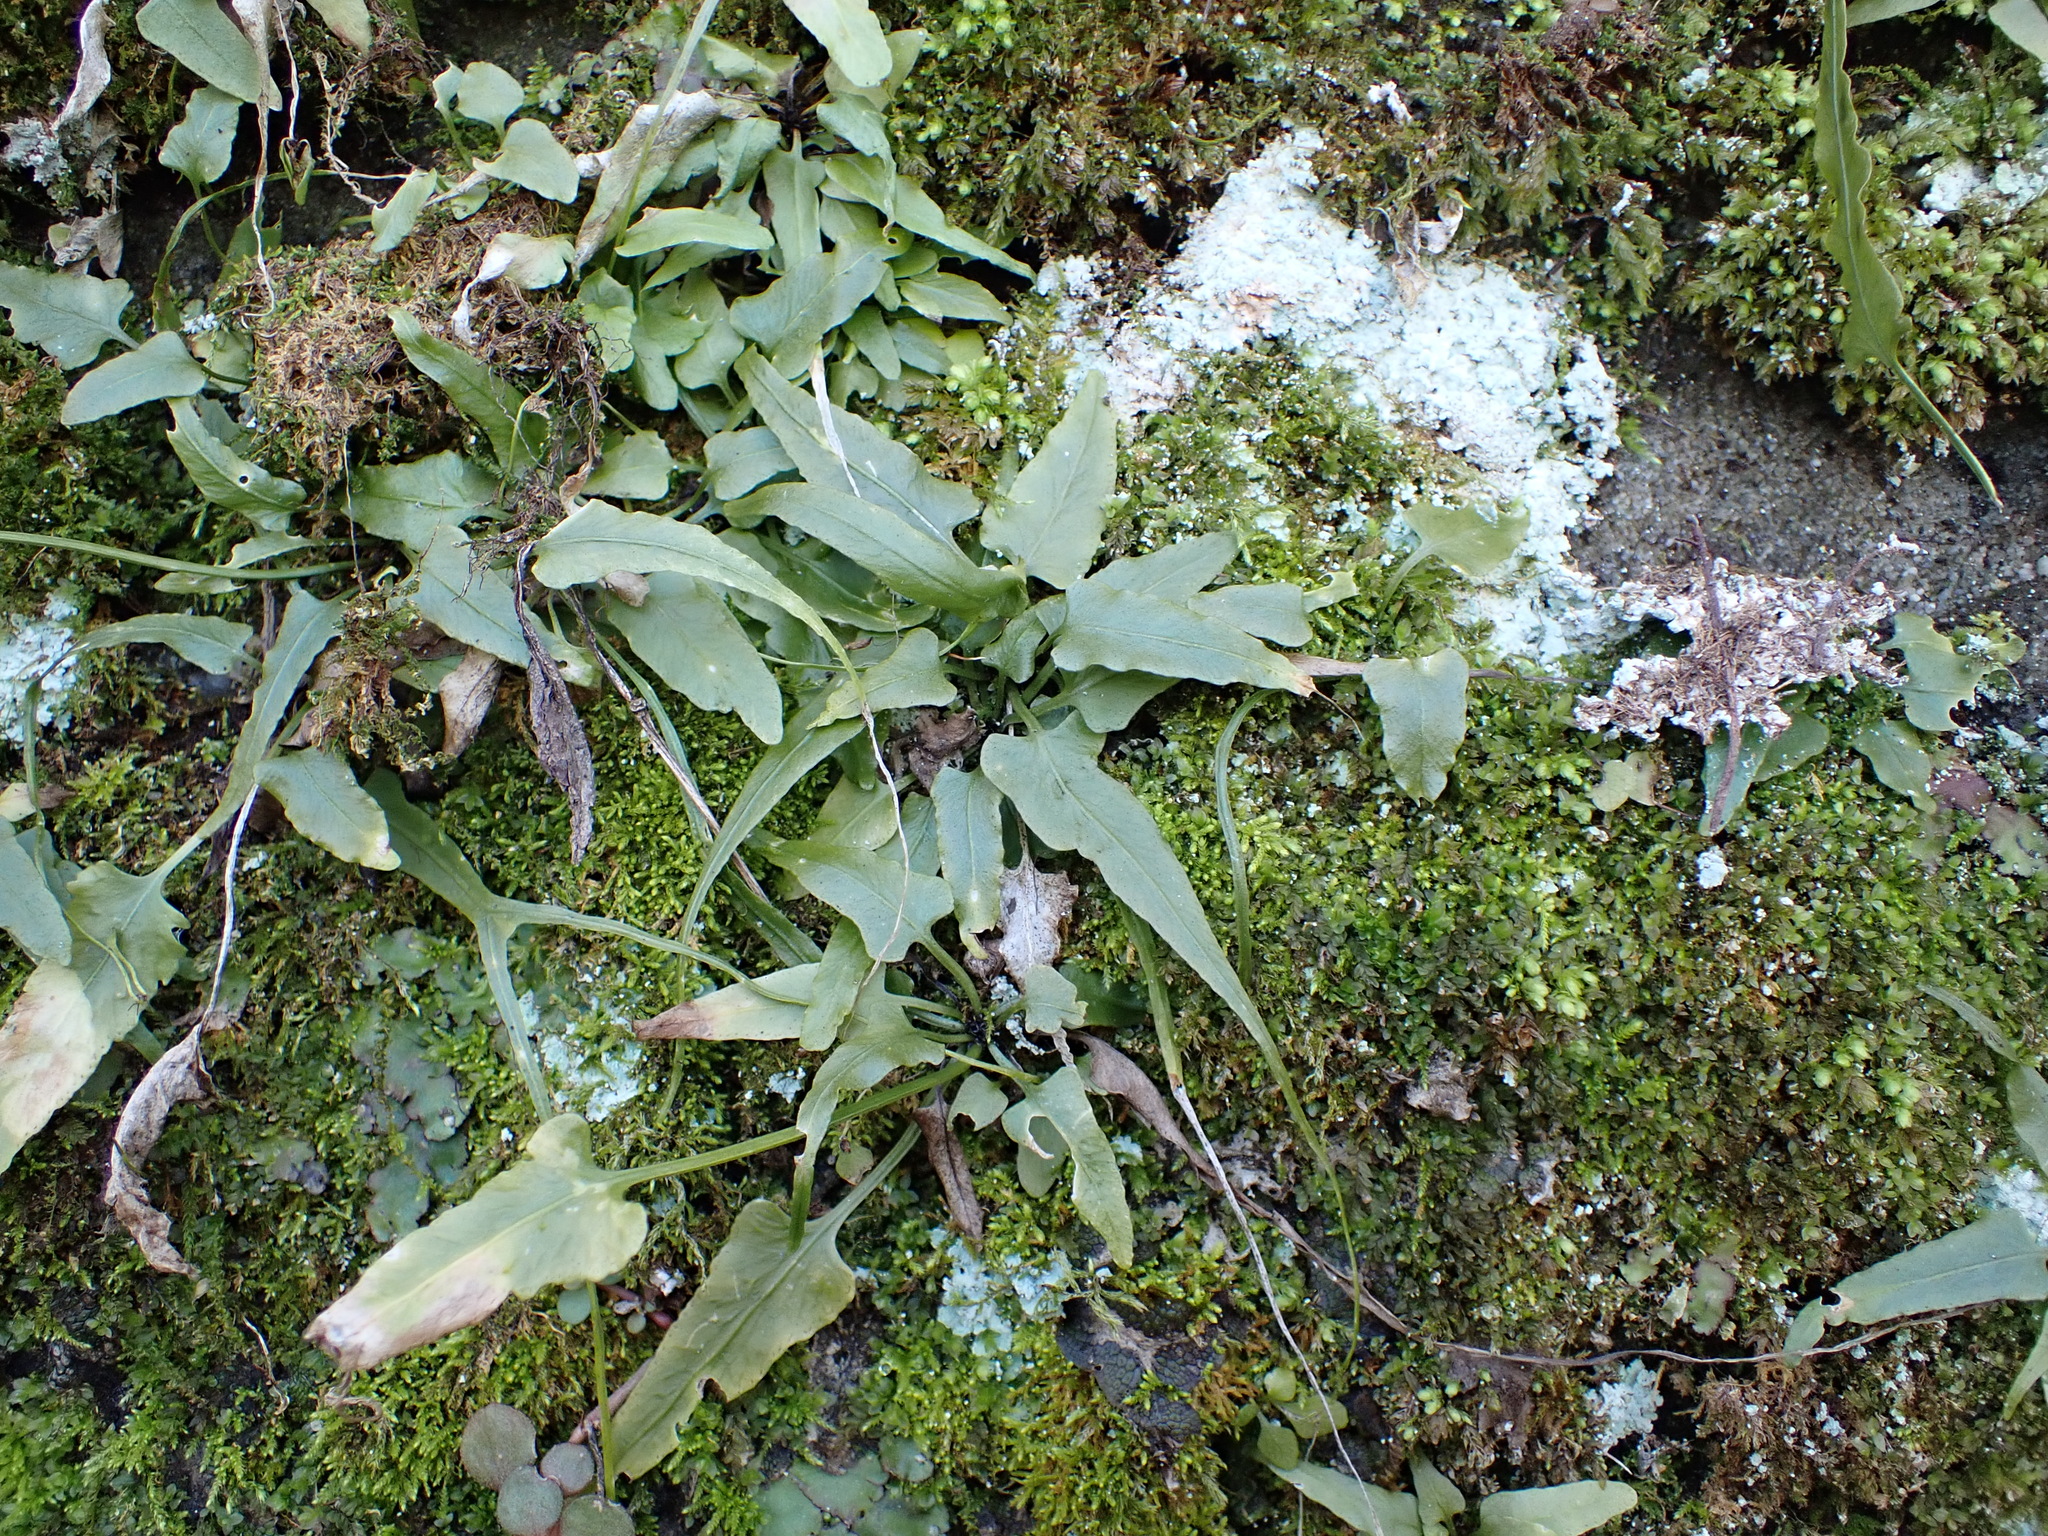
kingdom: Plantae
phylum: Tracheophyta
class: Polypodiopsida
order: Polypodiales
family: Aspleniaceae
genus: Asplenium
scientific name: Asplenium rhizophyllum
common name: Walking fern
